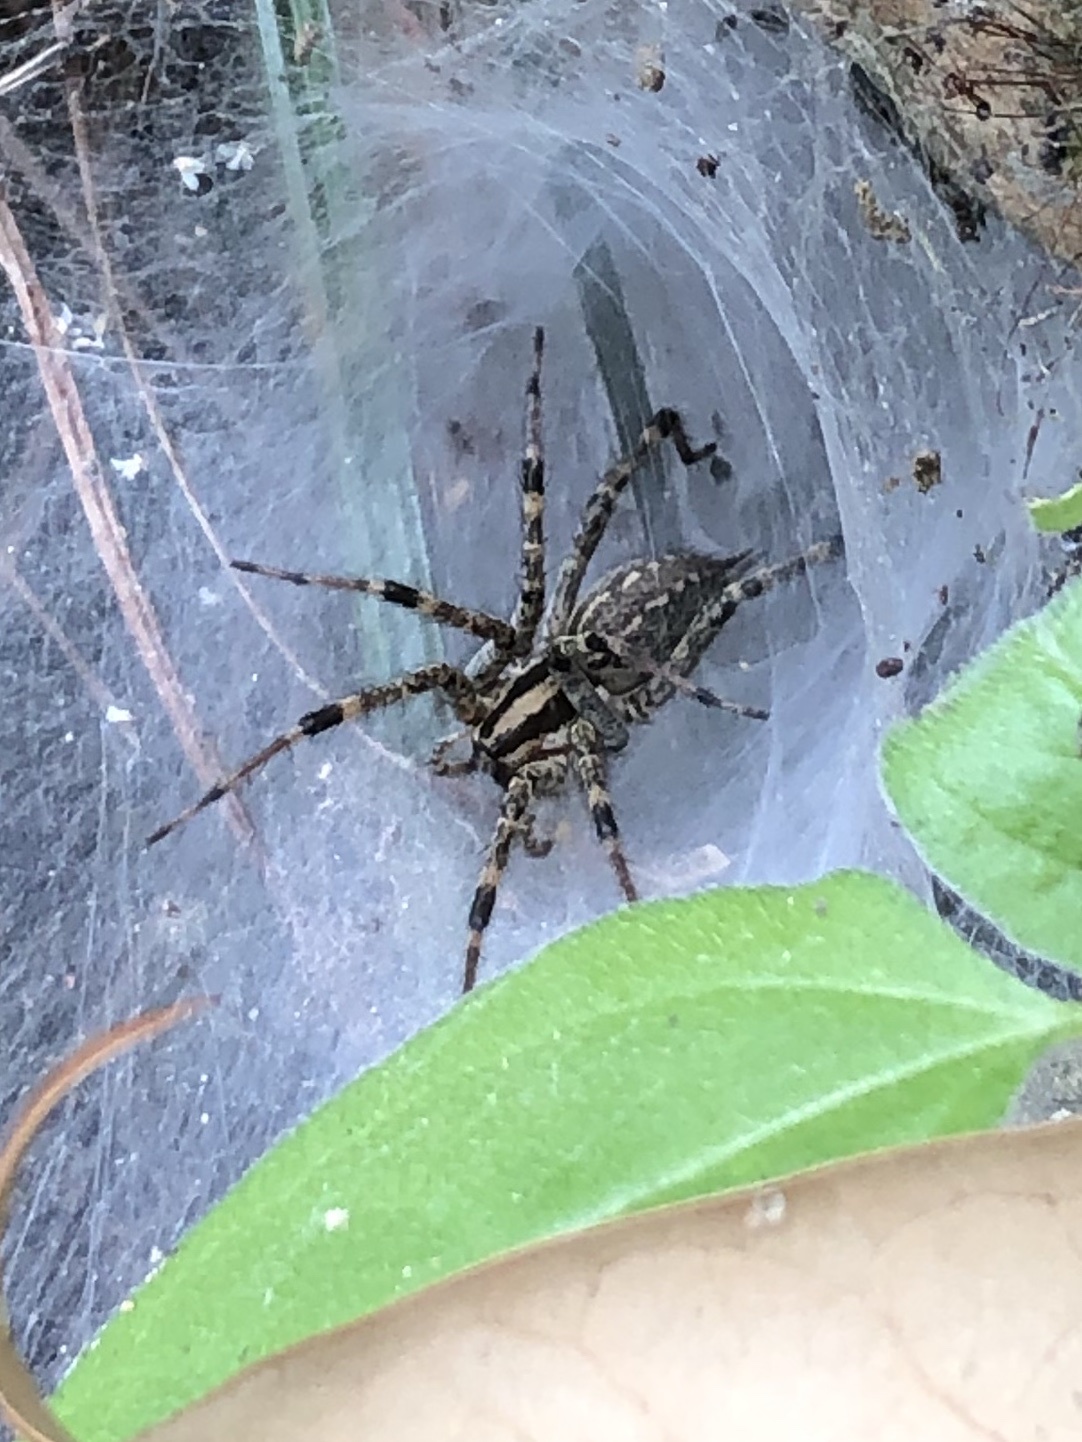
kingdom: Animalia
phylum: Arthropoda
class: Arachnida
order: Araneae
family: Agelenidae
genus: Agelenopsis
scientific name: Agelenopsis
